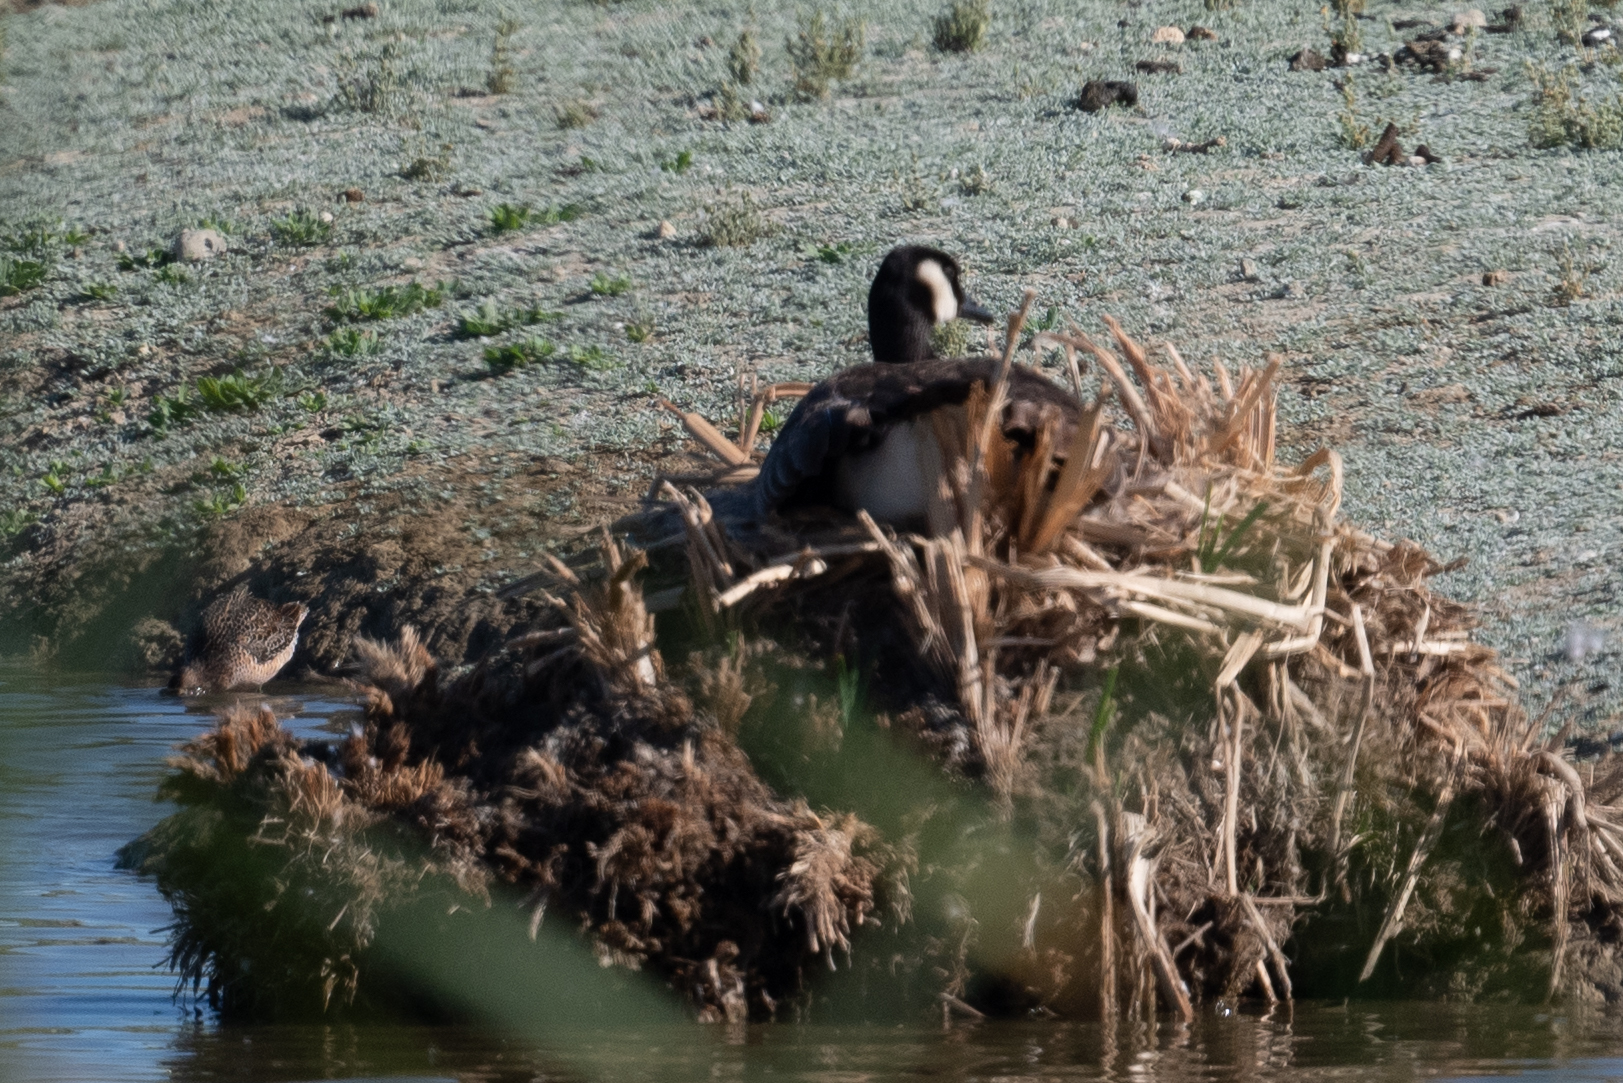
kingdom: Animalia
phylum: Chordata
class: Aves
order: Anseriformes
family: Anatidae
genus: Branta
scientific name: Branta canadensis
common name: Canada goose
